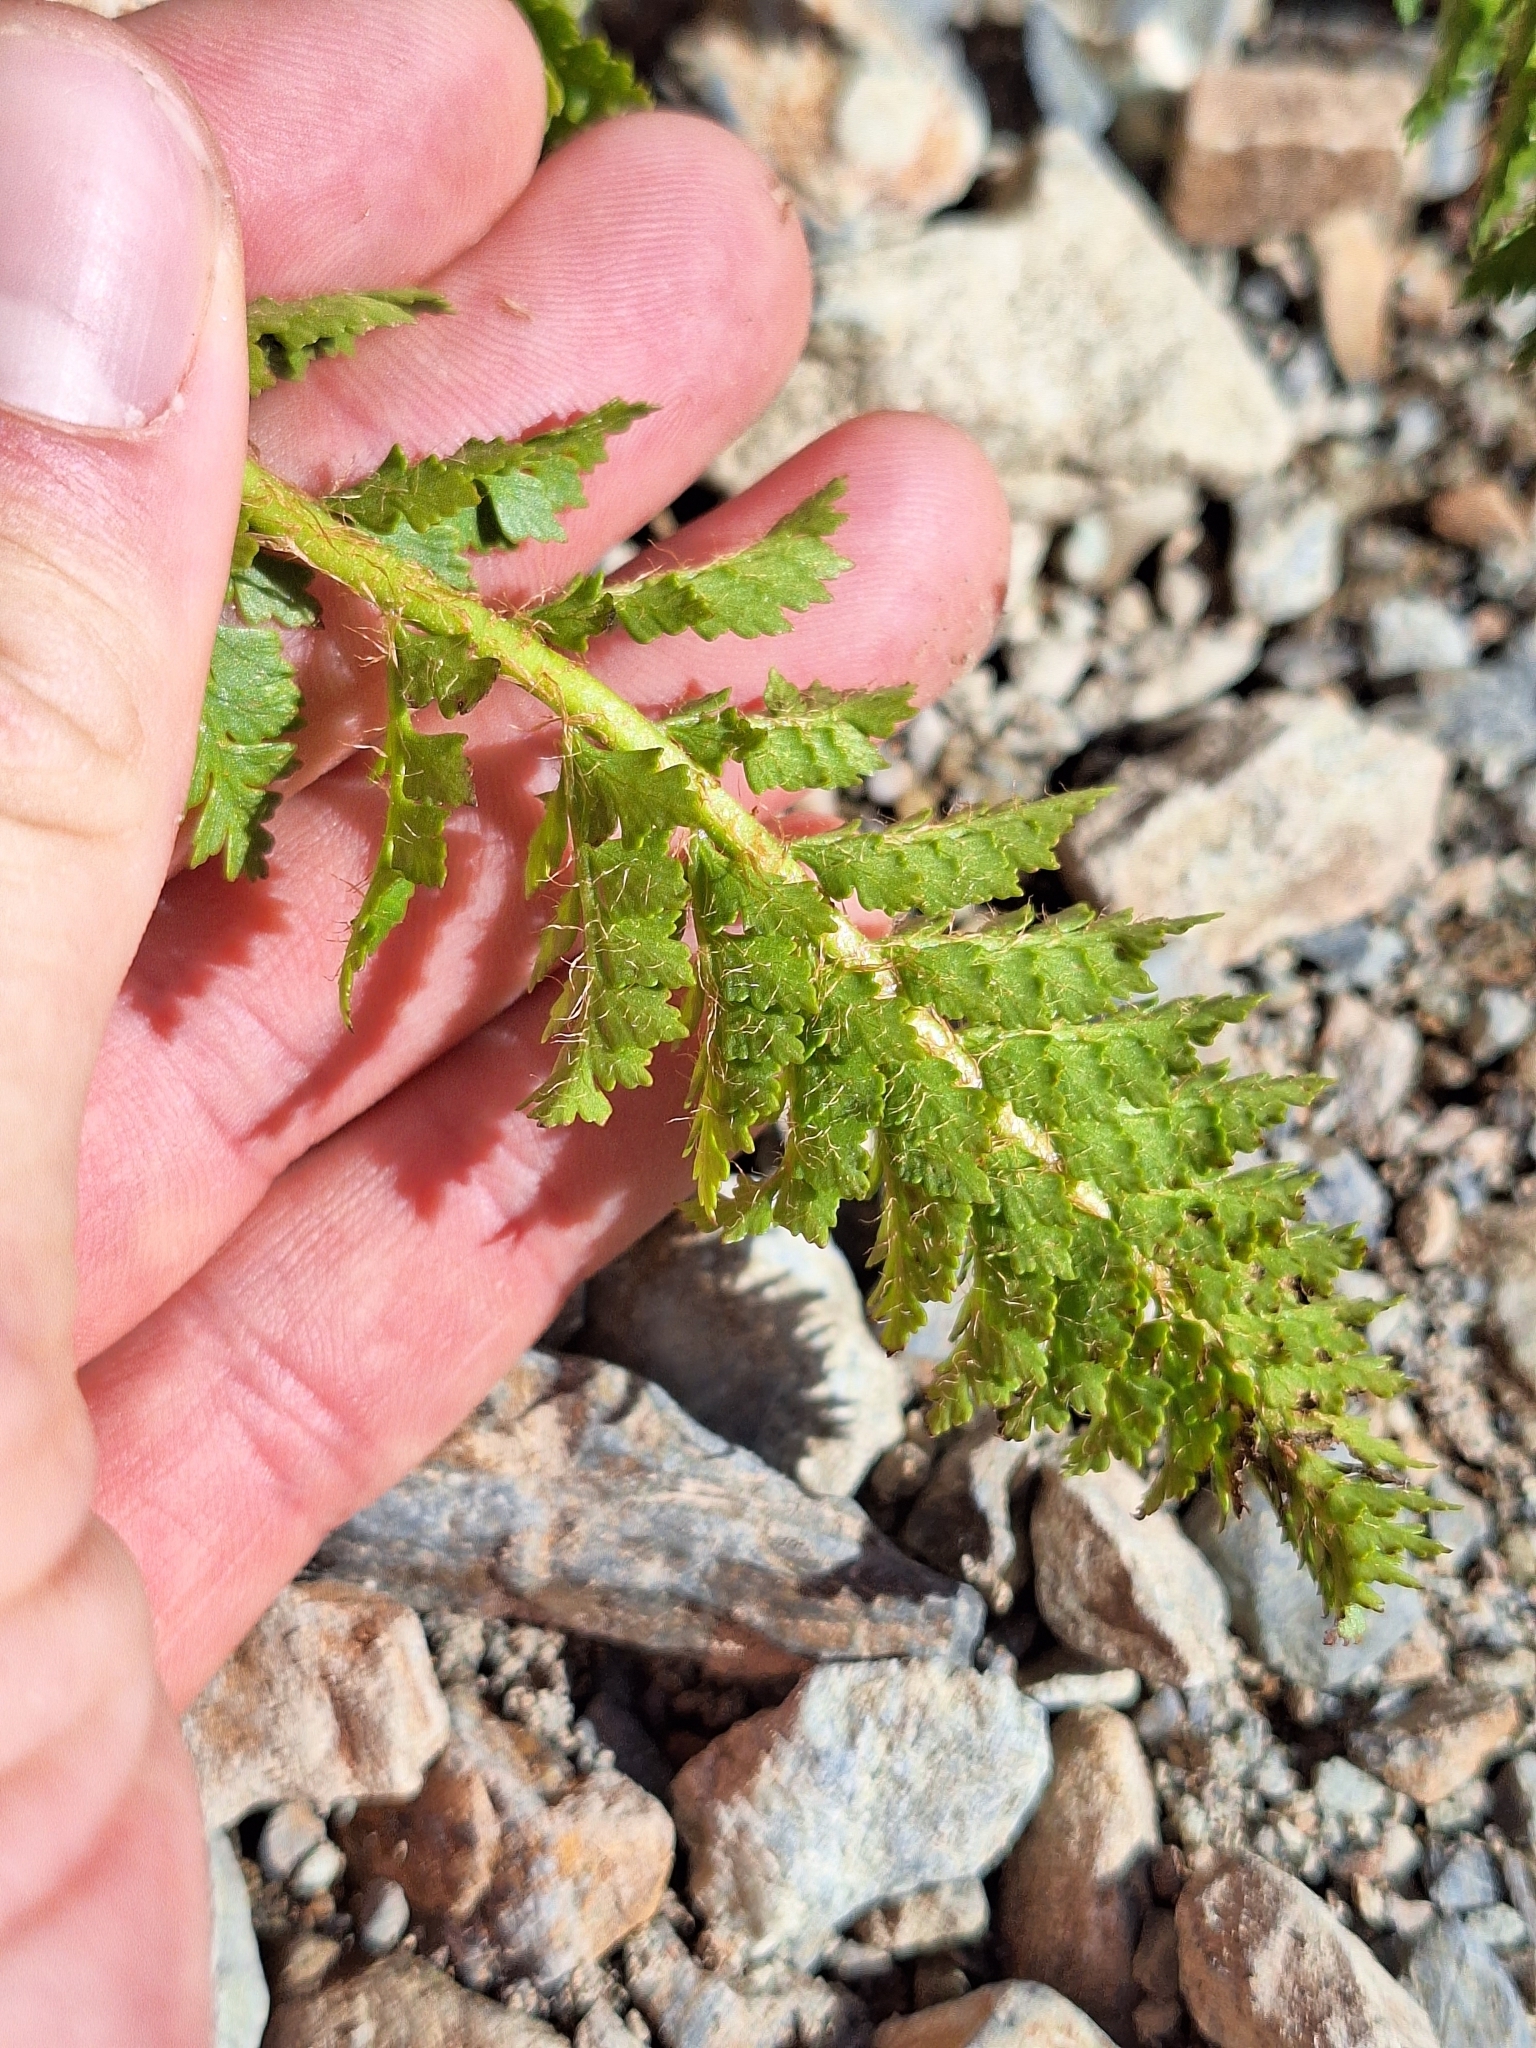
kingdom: Plantae
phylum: Tracheophyta
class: Polypodiopsida
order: Polypodiales
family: Dryopteridaceae
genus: Polystichum
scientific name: Polystichum cystostegia
